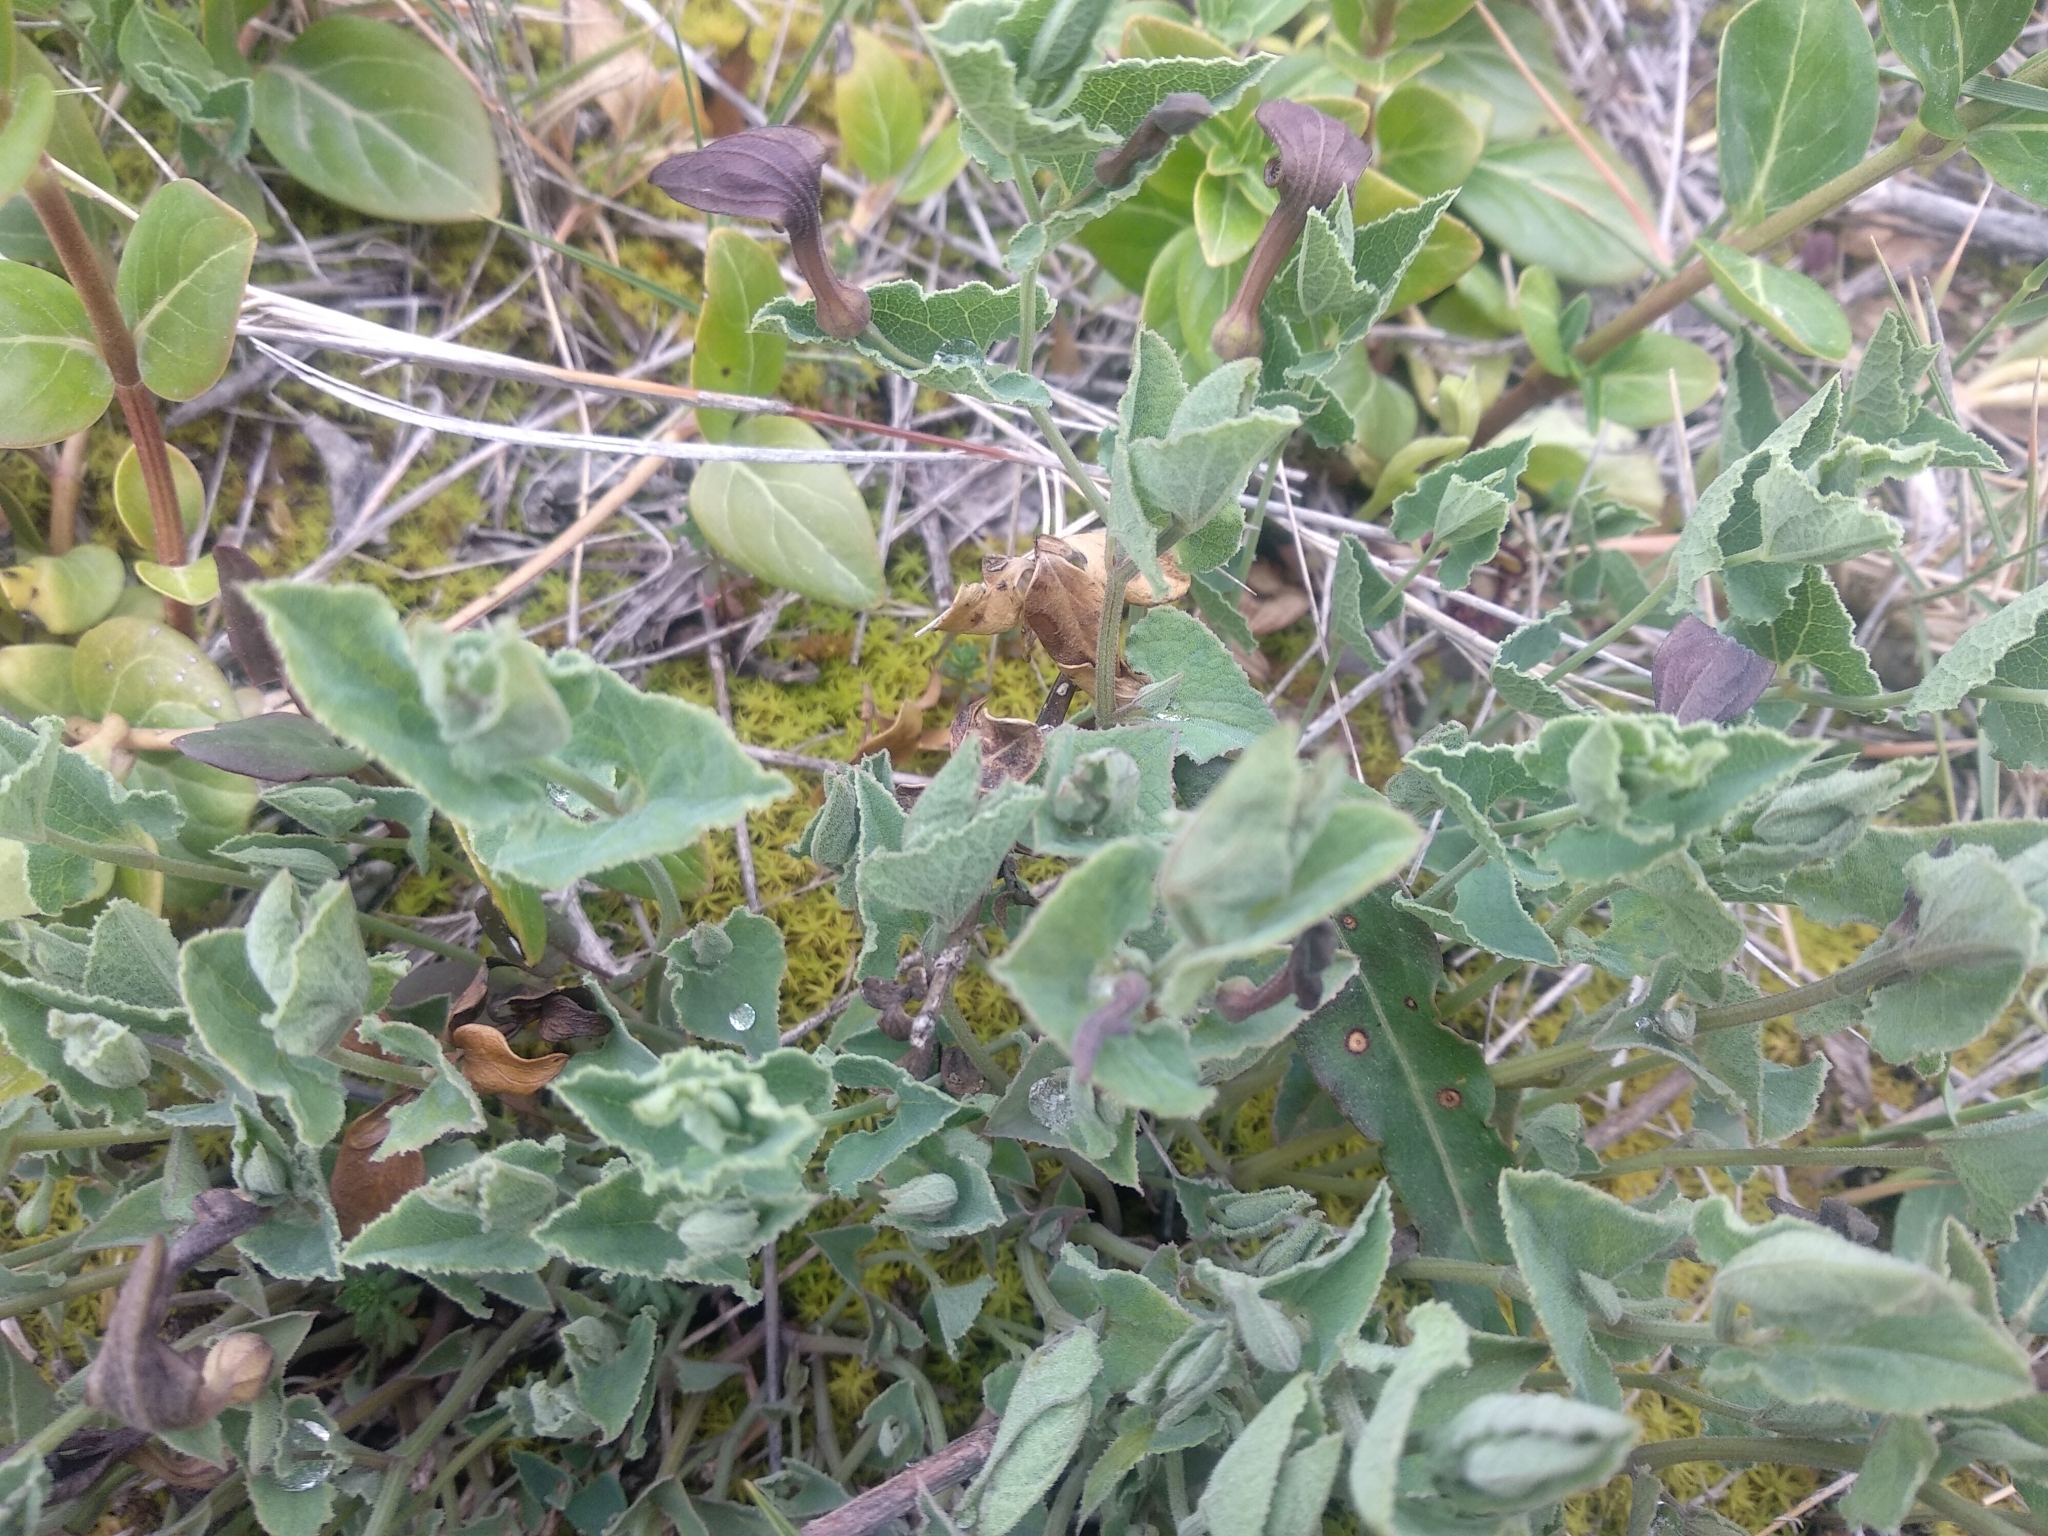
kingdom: Plantae
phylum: Tracheophyta
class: Magnoliopsida
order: Piperales
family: Aristolochiaceae
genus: Aristolochia
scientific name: Aristolochia pistolochia
